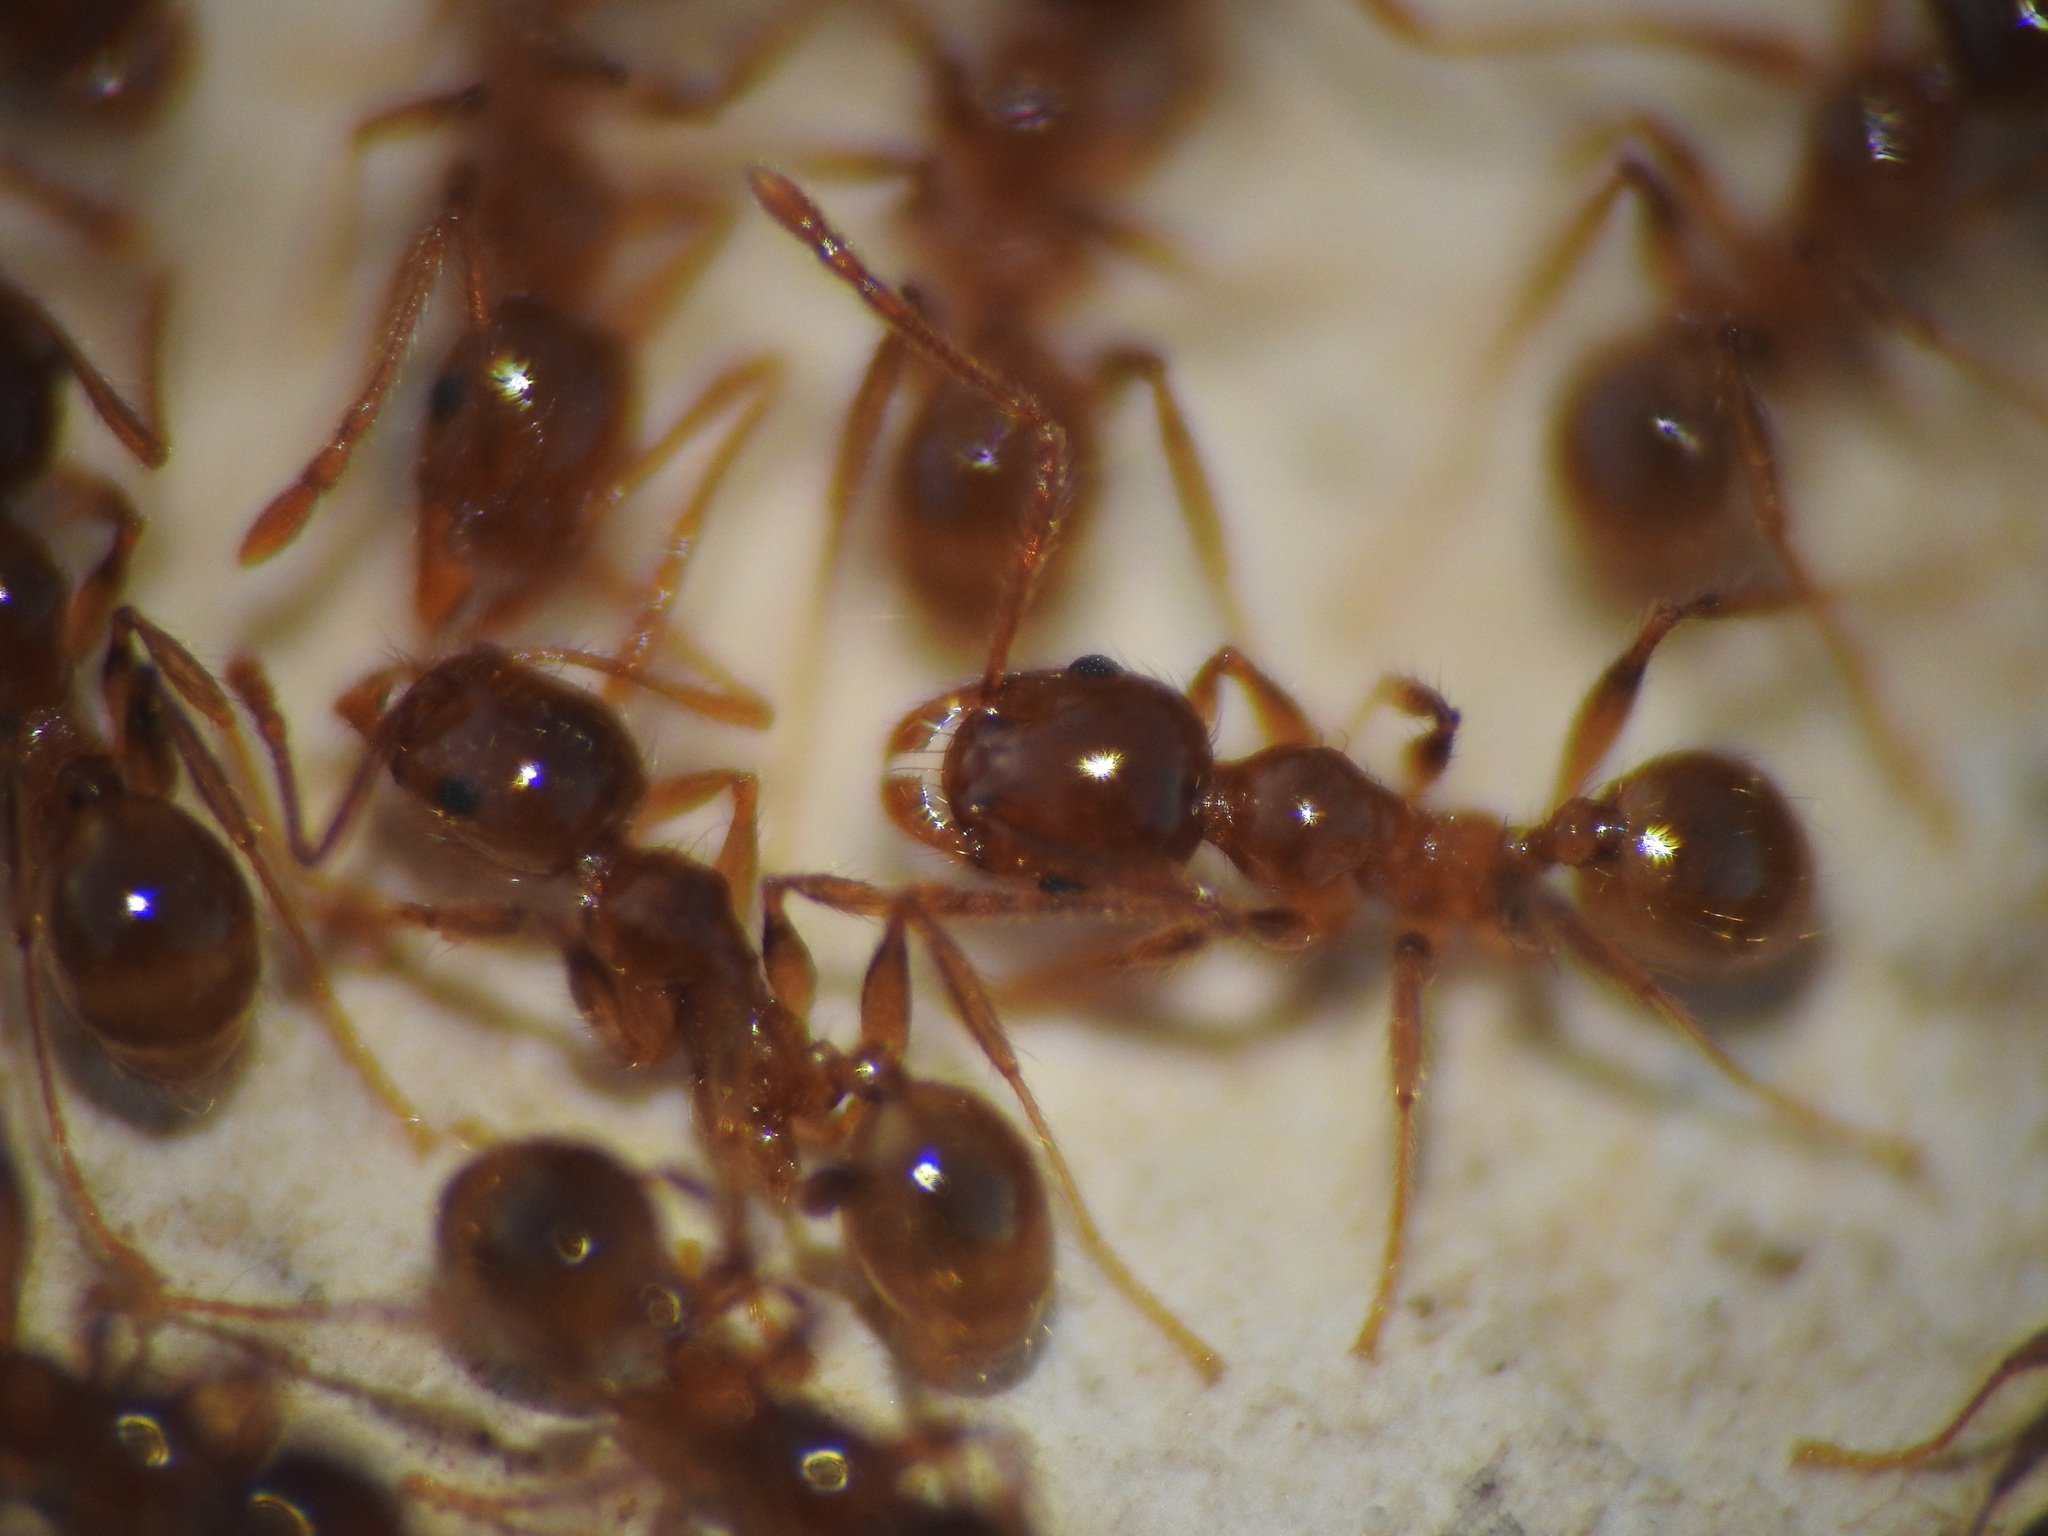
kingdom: Animalia
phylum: Arthropoda
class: Insecta
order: Hymenoptera
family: Formicidae
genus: Pheidole
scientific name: Pheidole pallidula
